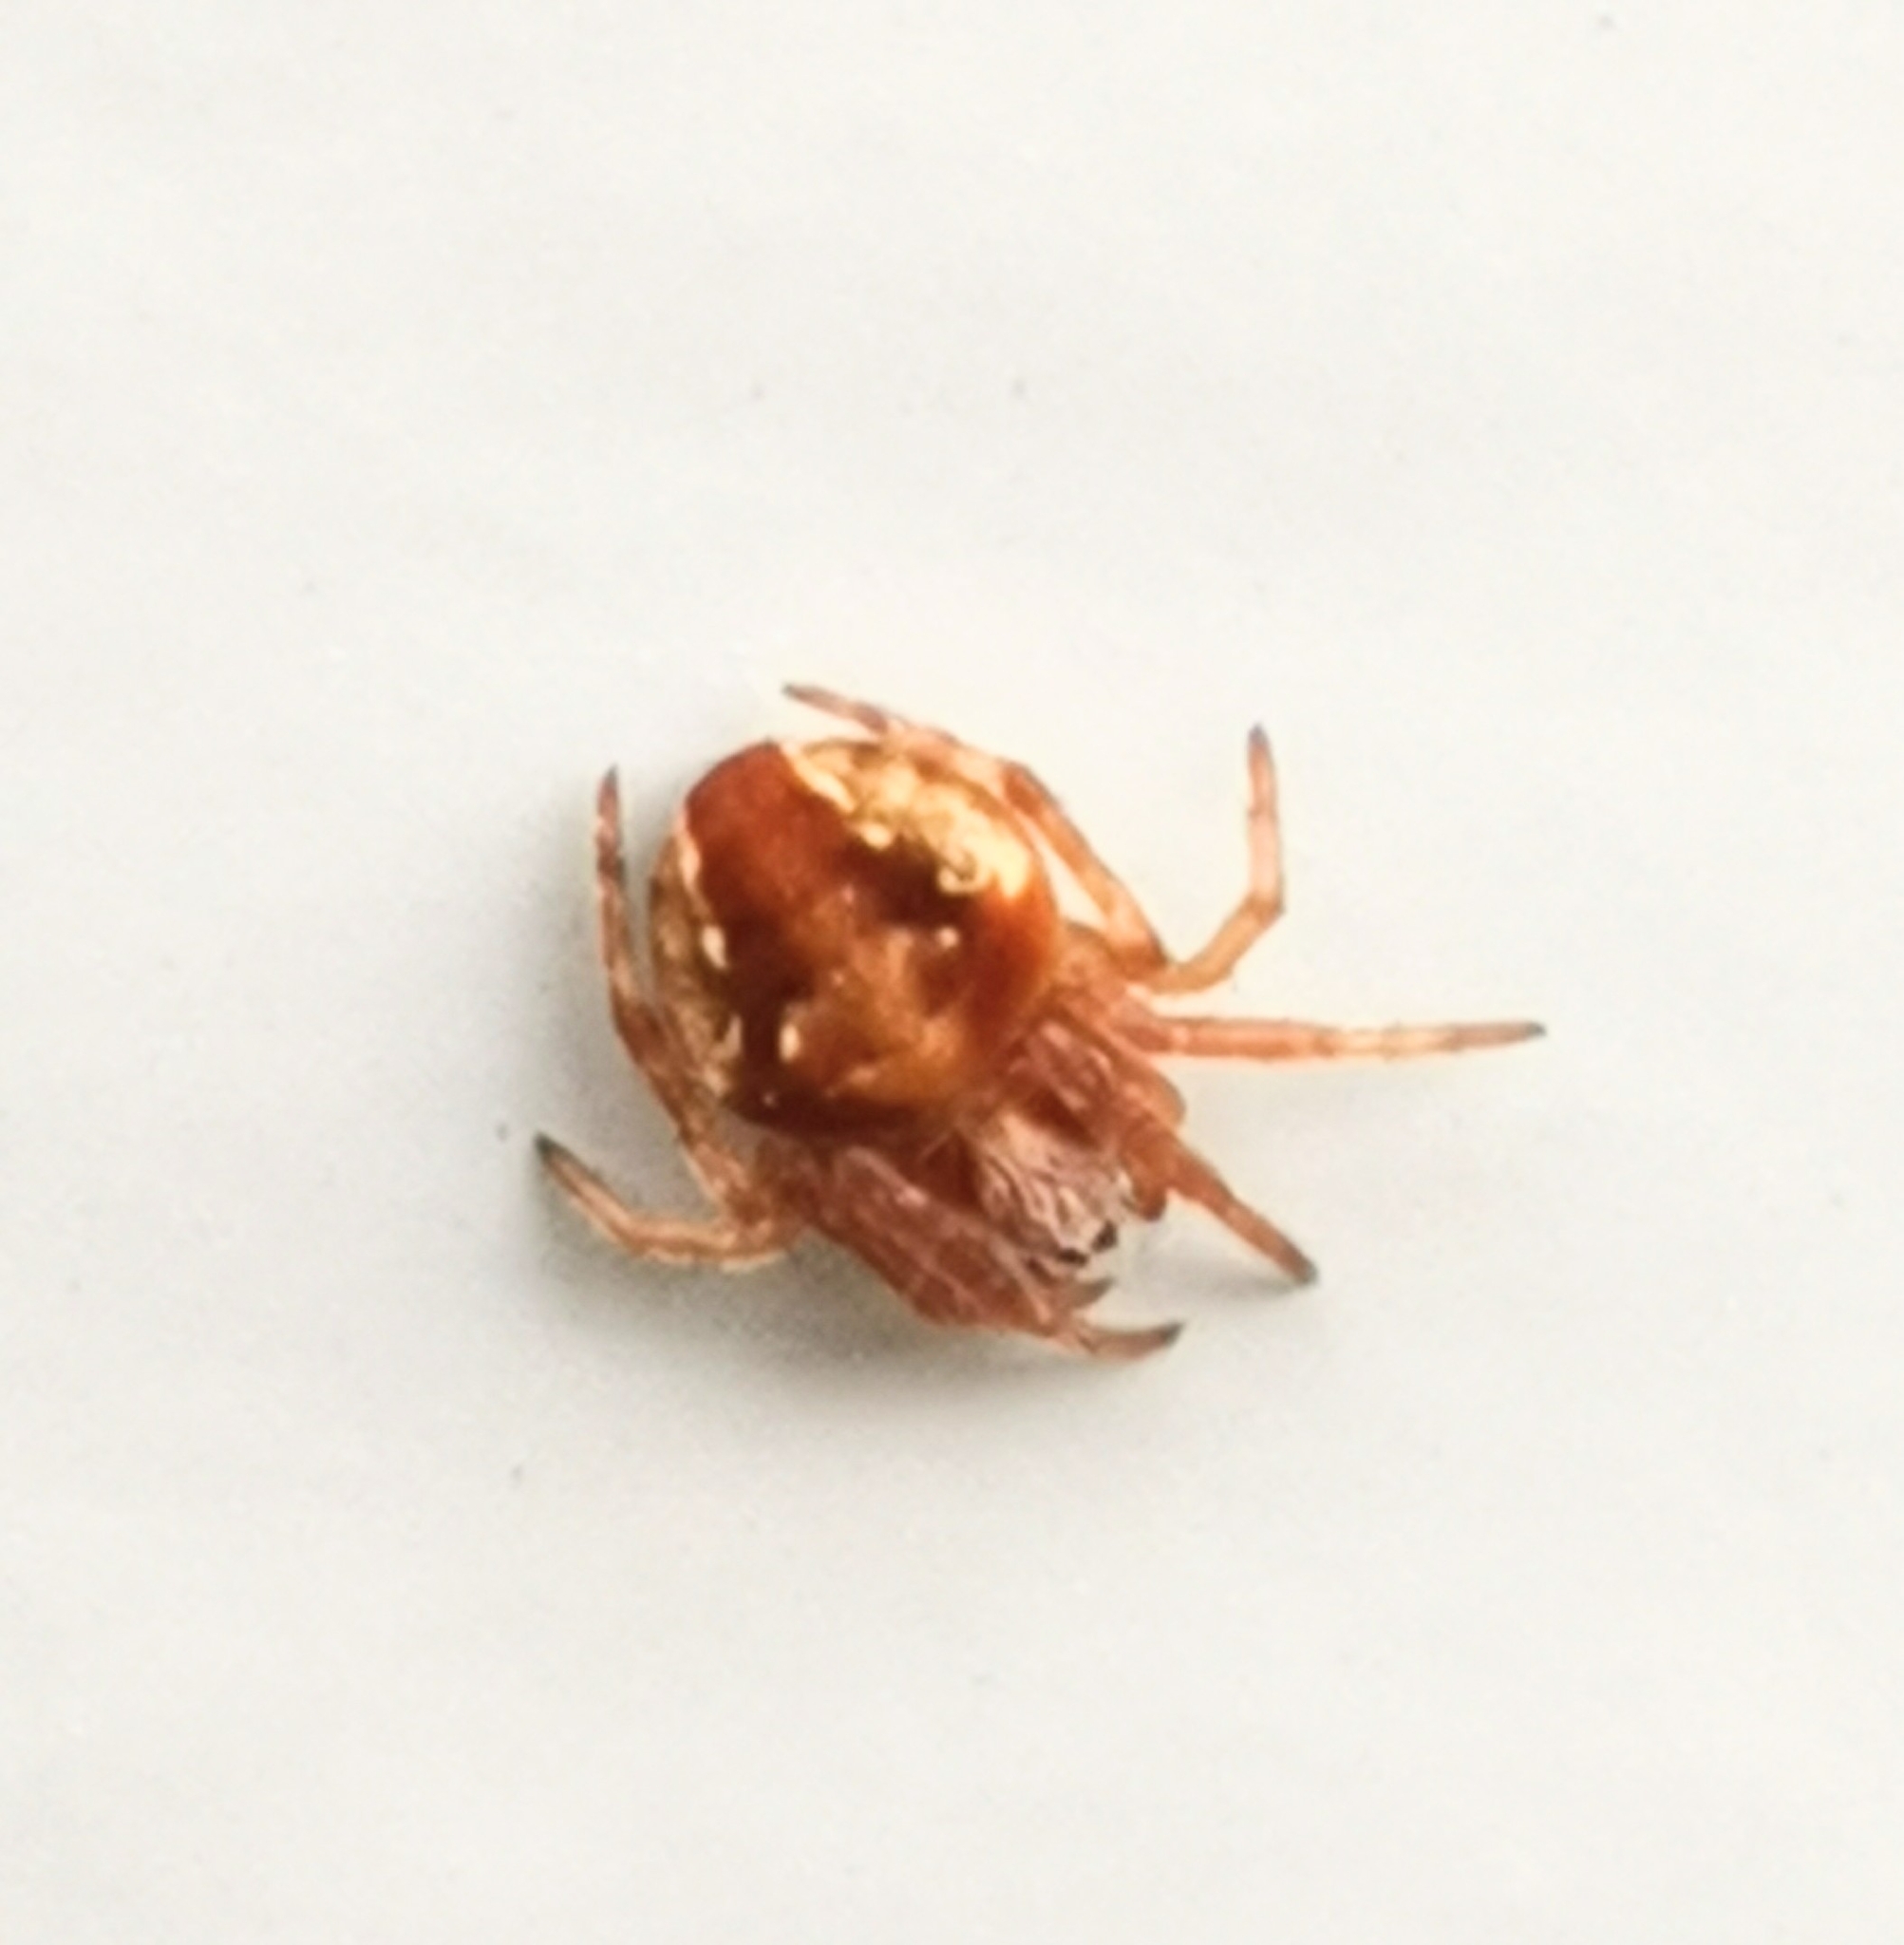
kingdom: Animalia
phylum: Arthropoda
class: Arachnida
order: Araneae
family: Araneidae
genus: Araneus
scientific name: Araneus sturmi
